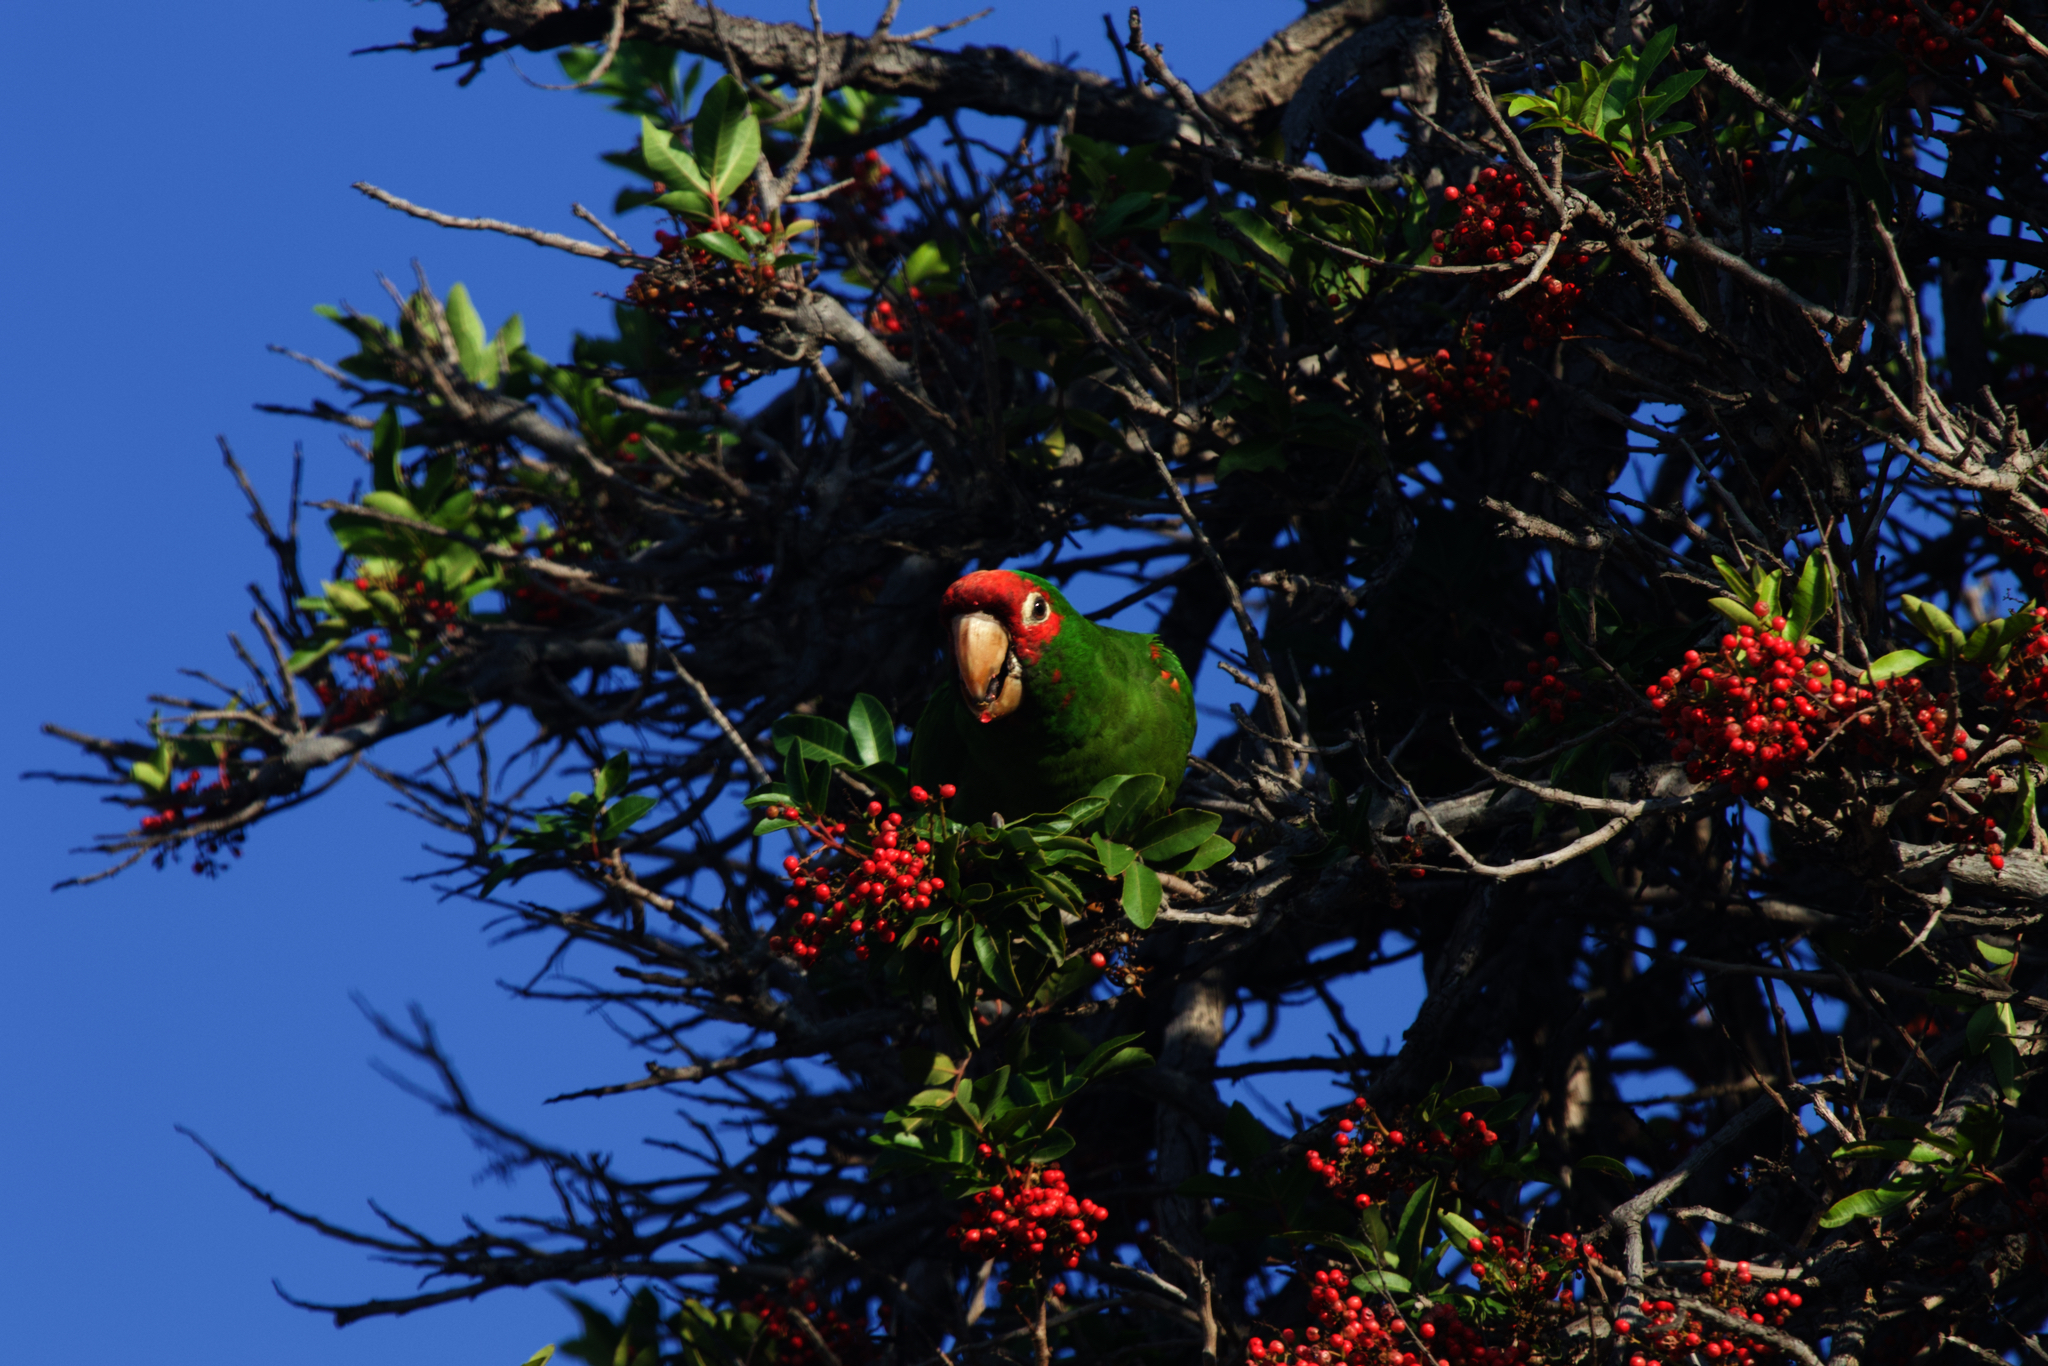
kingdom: Animalia
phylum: Chordata
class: Aves
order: Psittaciformes
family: Psittacidae
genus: Aratinga
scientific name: Aratinga mitrata
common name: Mitred parakeet
